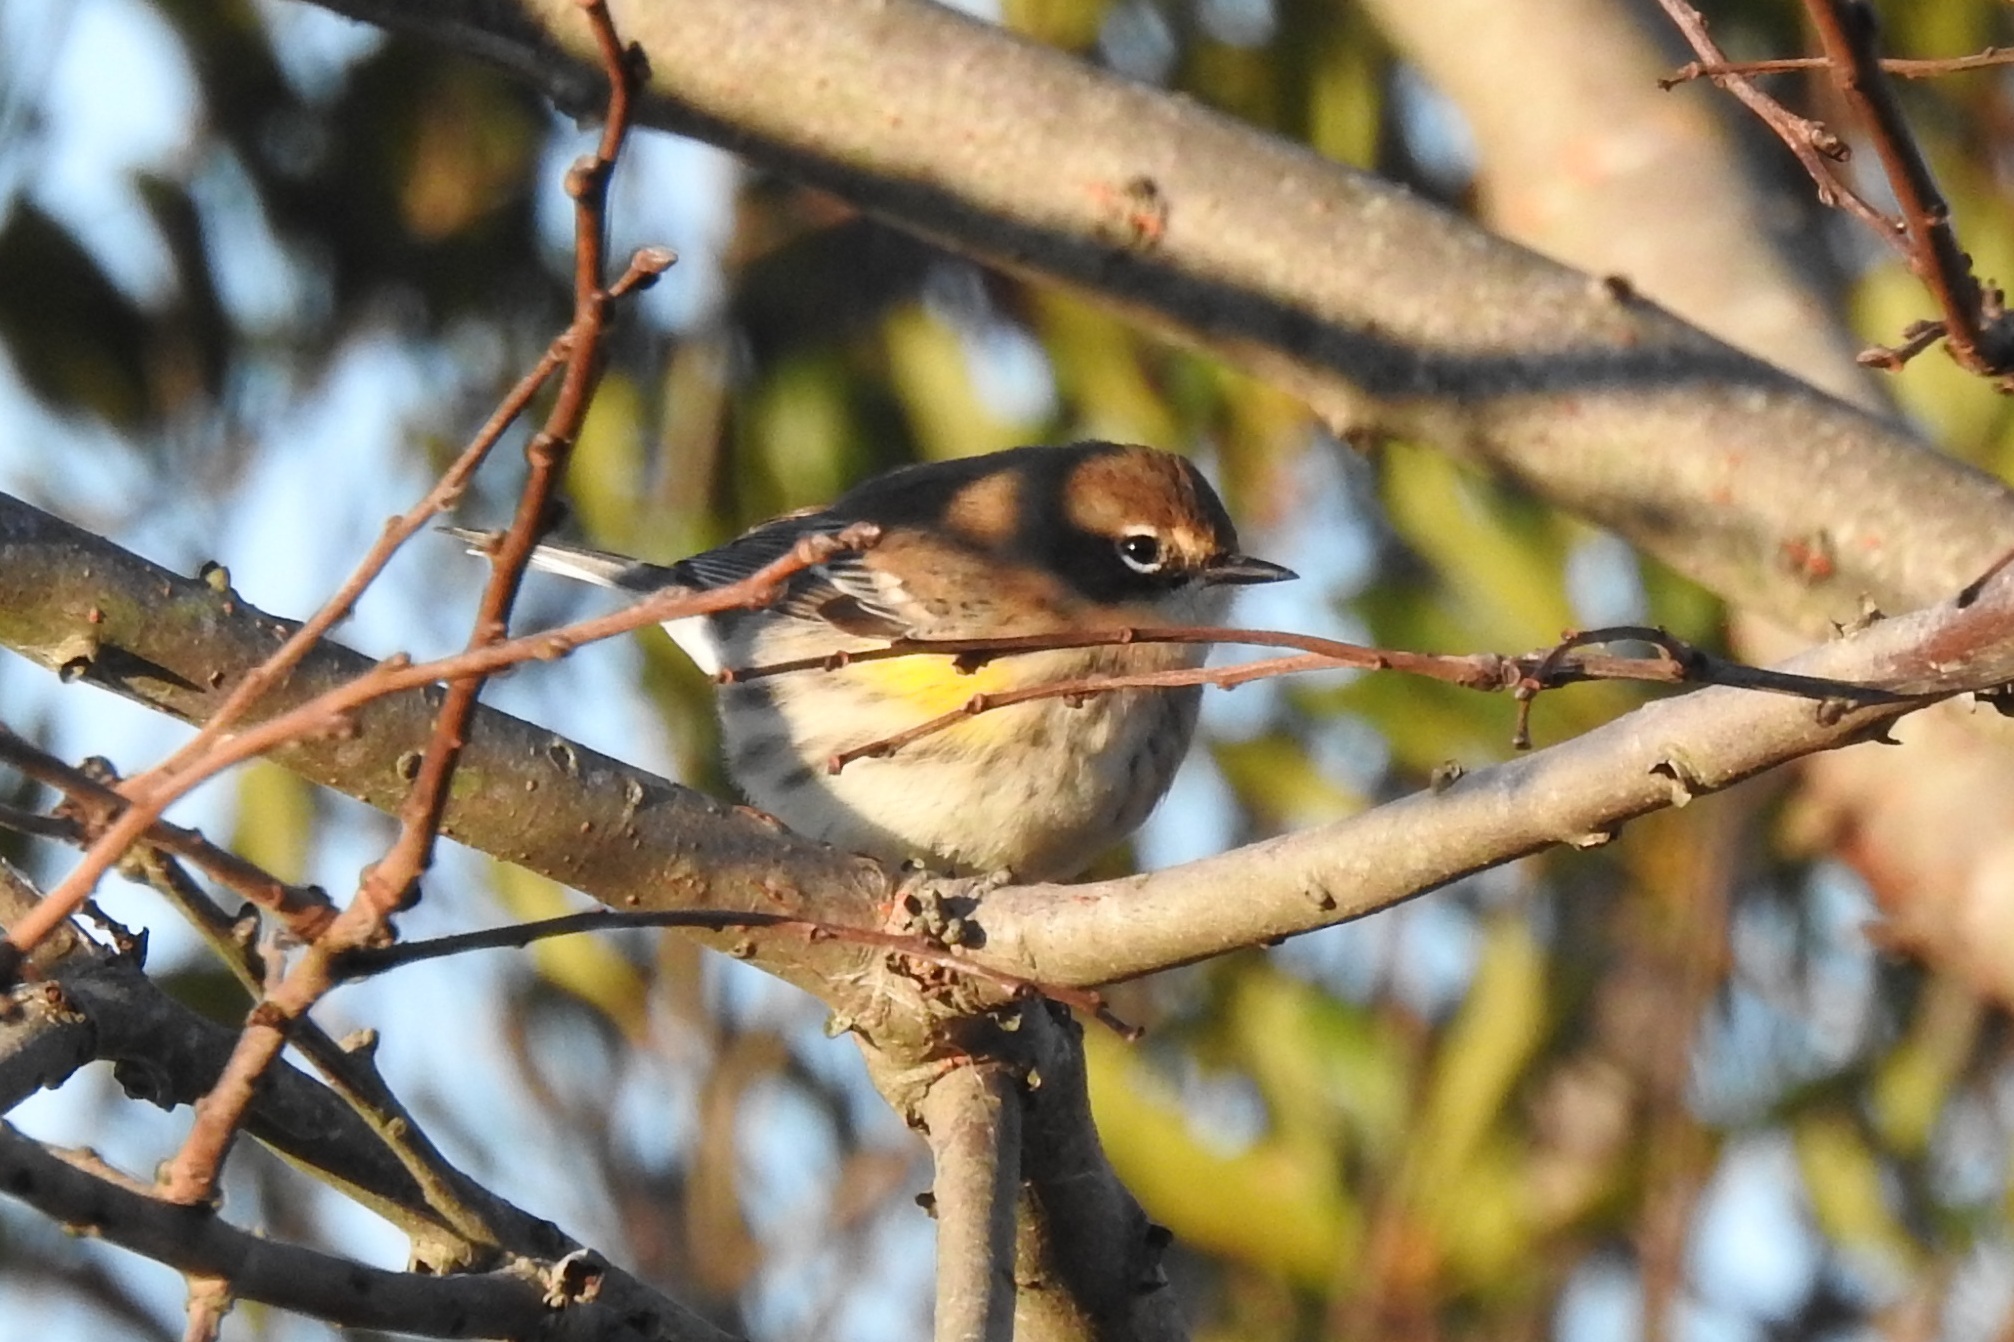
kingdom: Animalia
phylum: Chordata
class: Aves
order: Passeriformes
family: Parulidae
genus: Setophaga
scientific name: Setophaga coronata
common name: Myrtle warbler
